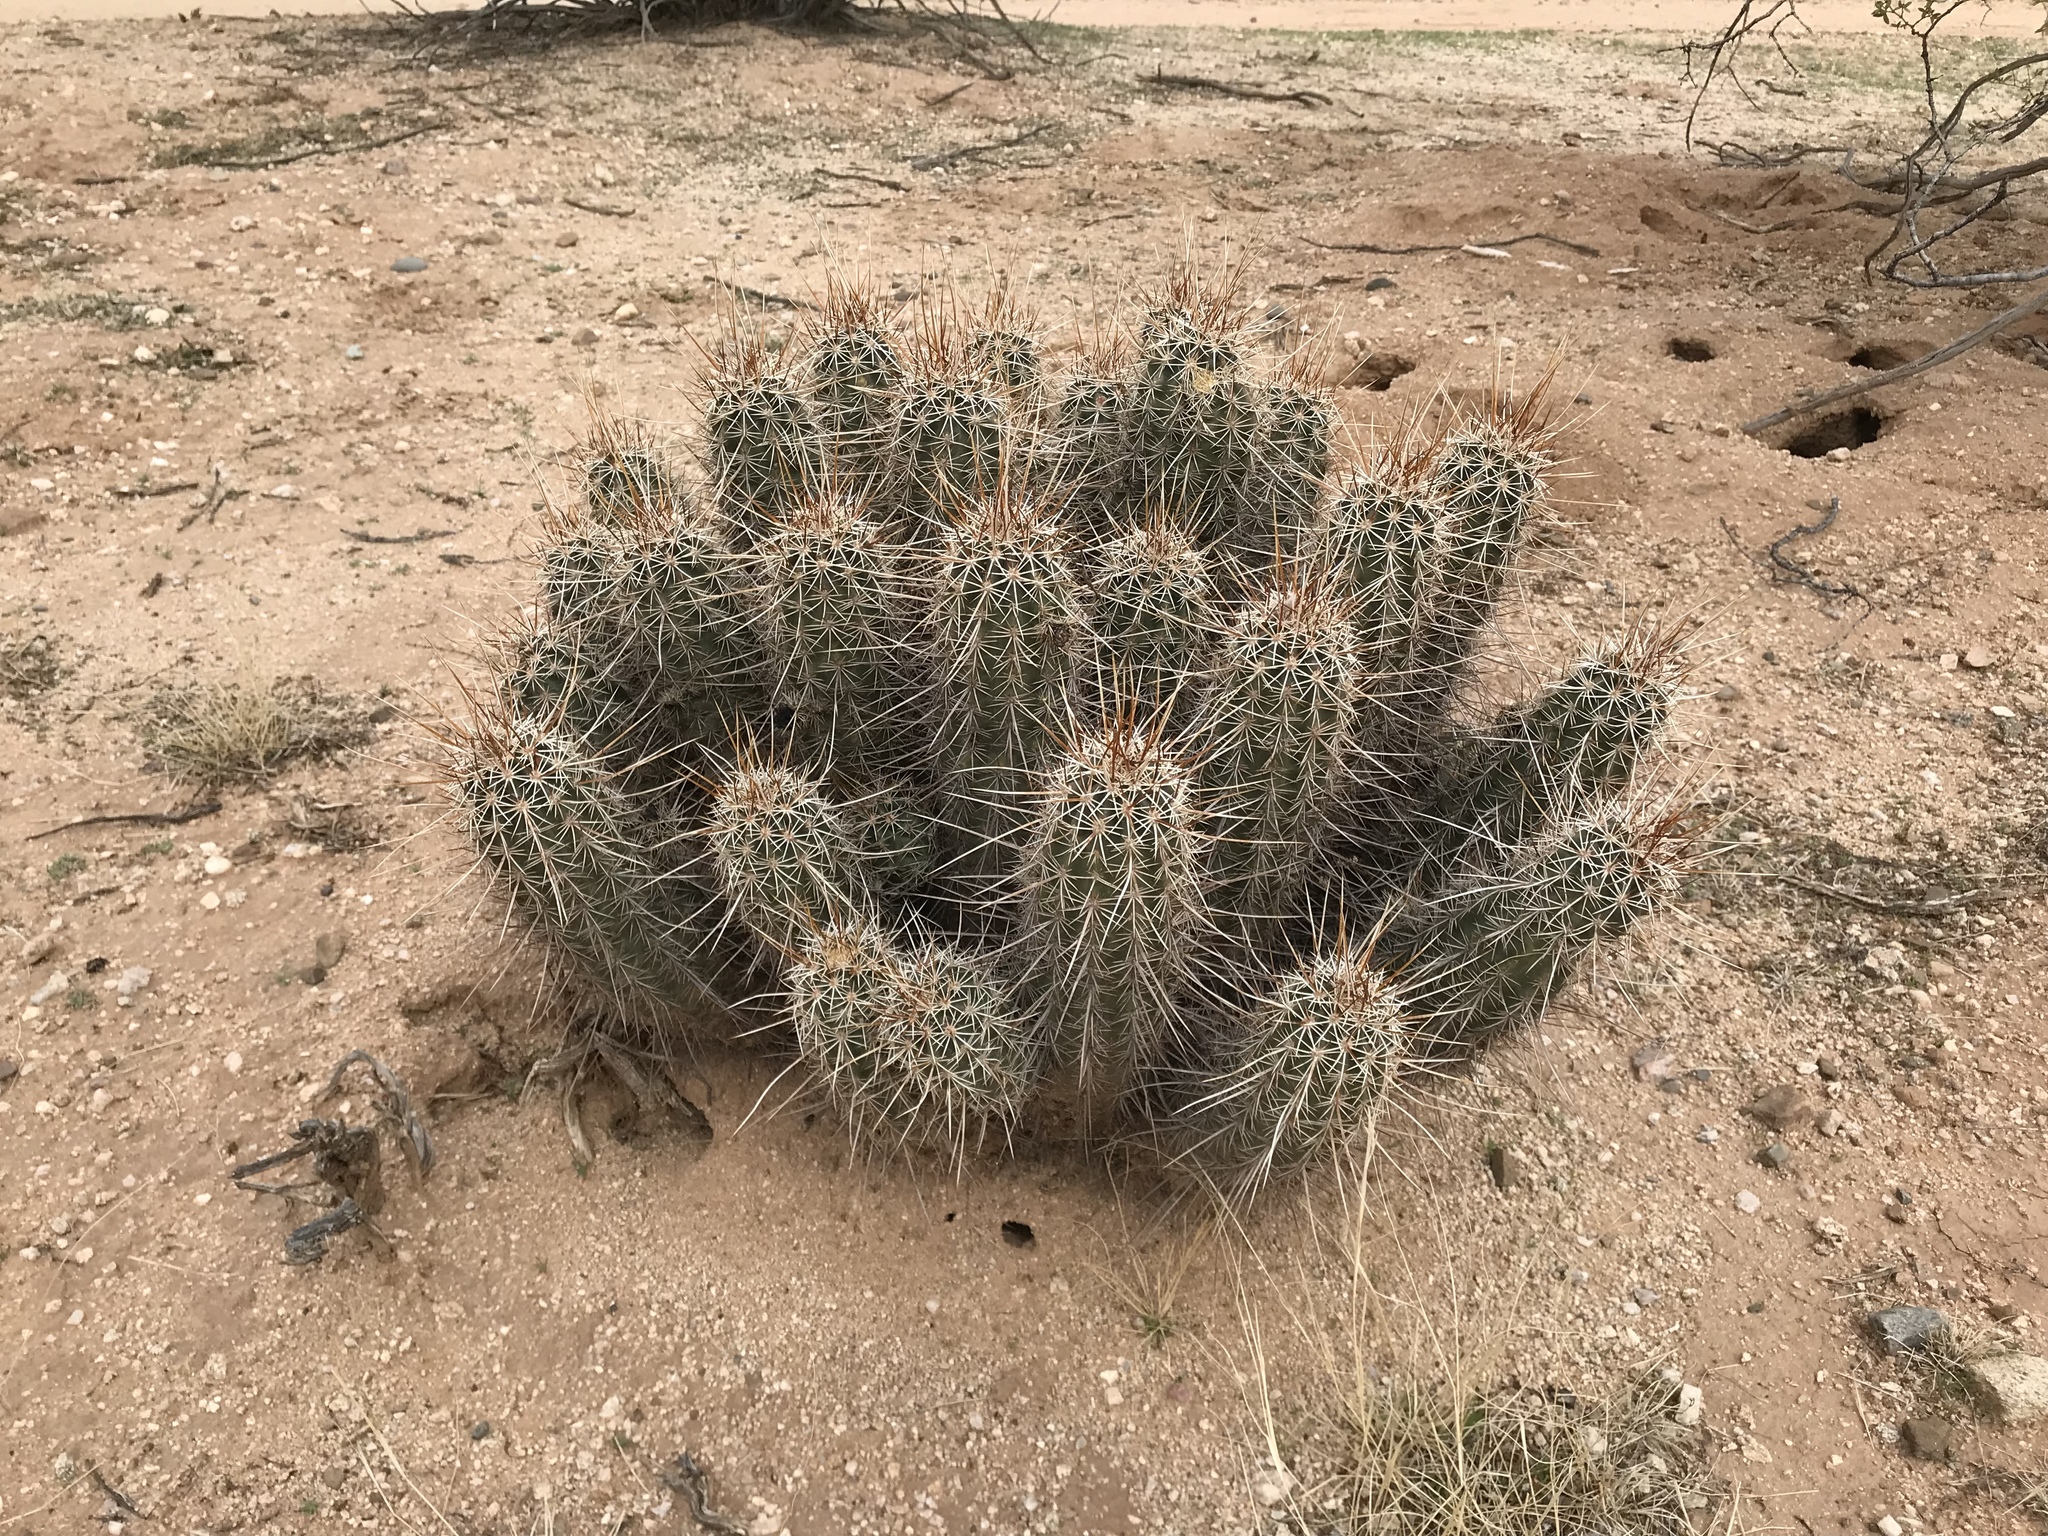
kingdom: Plantae
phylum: Tracheophyta
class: Magnoliopsida
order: Caryophyllales
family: Cactaceae
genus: Echinocereus
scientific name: Echinocereus fasciculatus
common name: Bundle hedgehog
